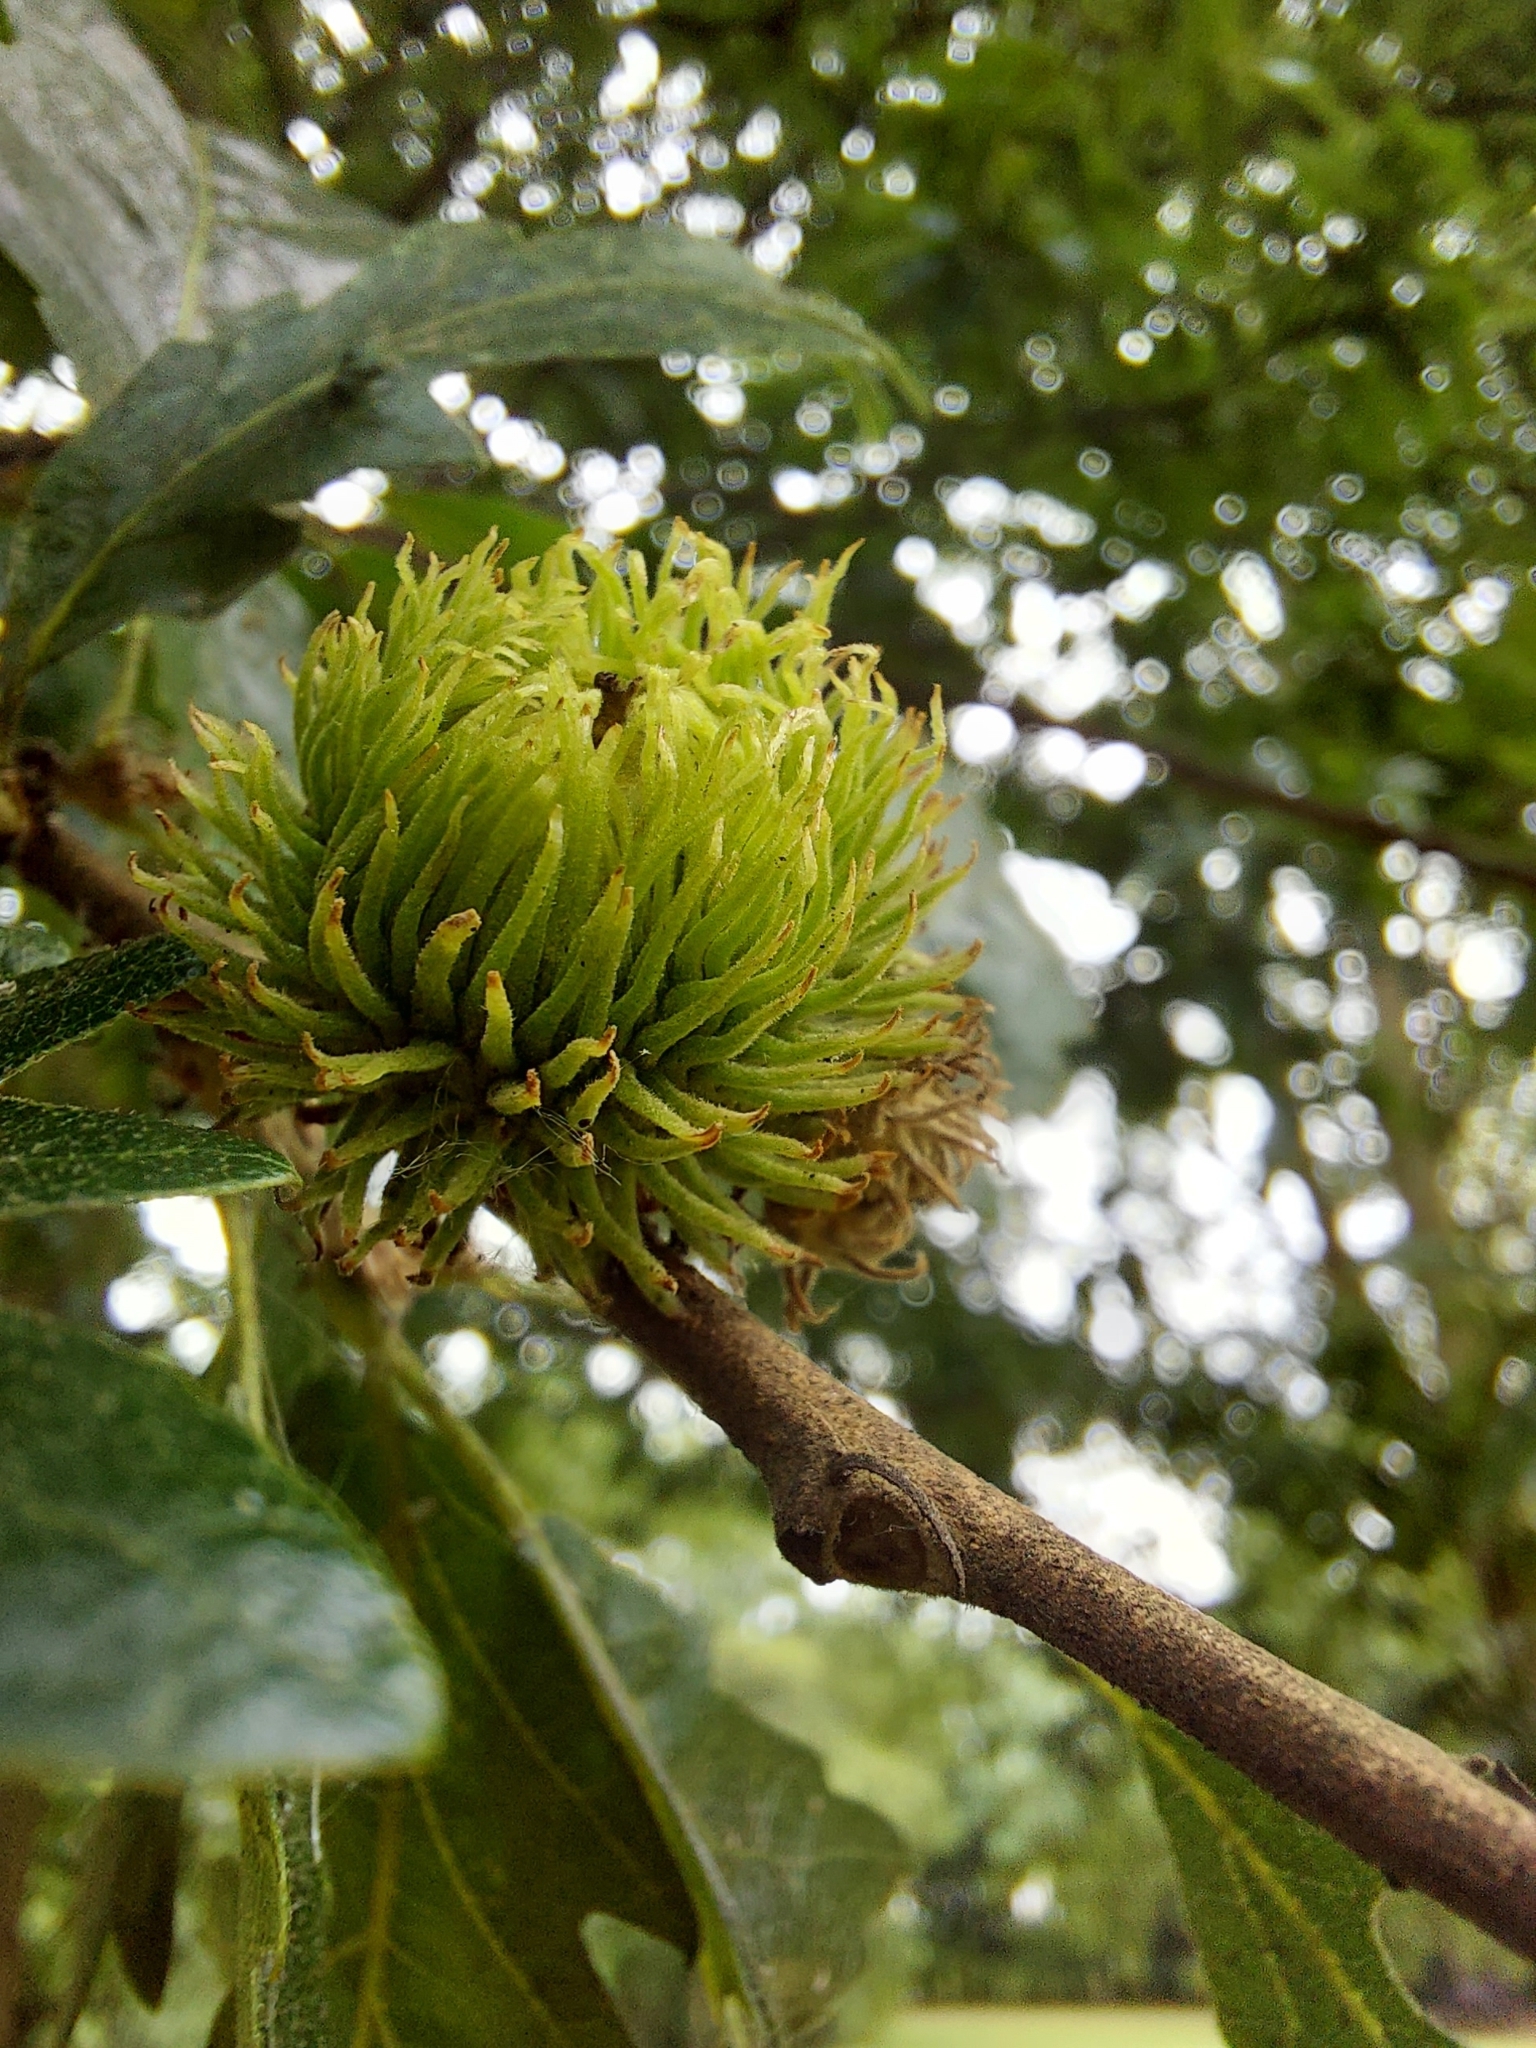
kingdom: Plantae
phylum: Tracheophyta
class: Magnoliopsida
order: Fagales
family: Fagaceae
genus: Quercus
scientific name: Quercus cerris
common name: Turkey oak
